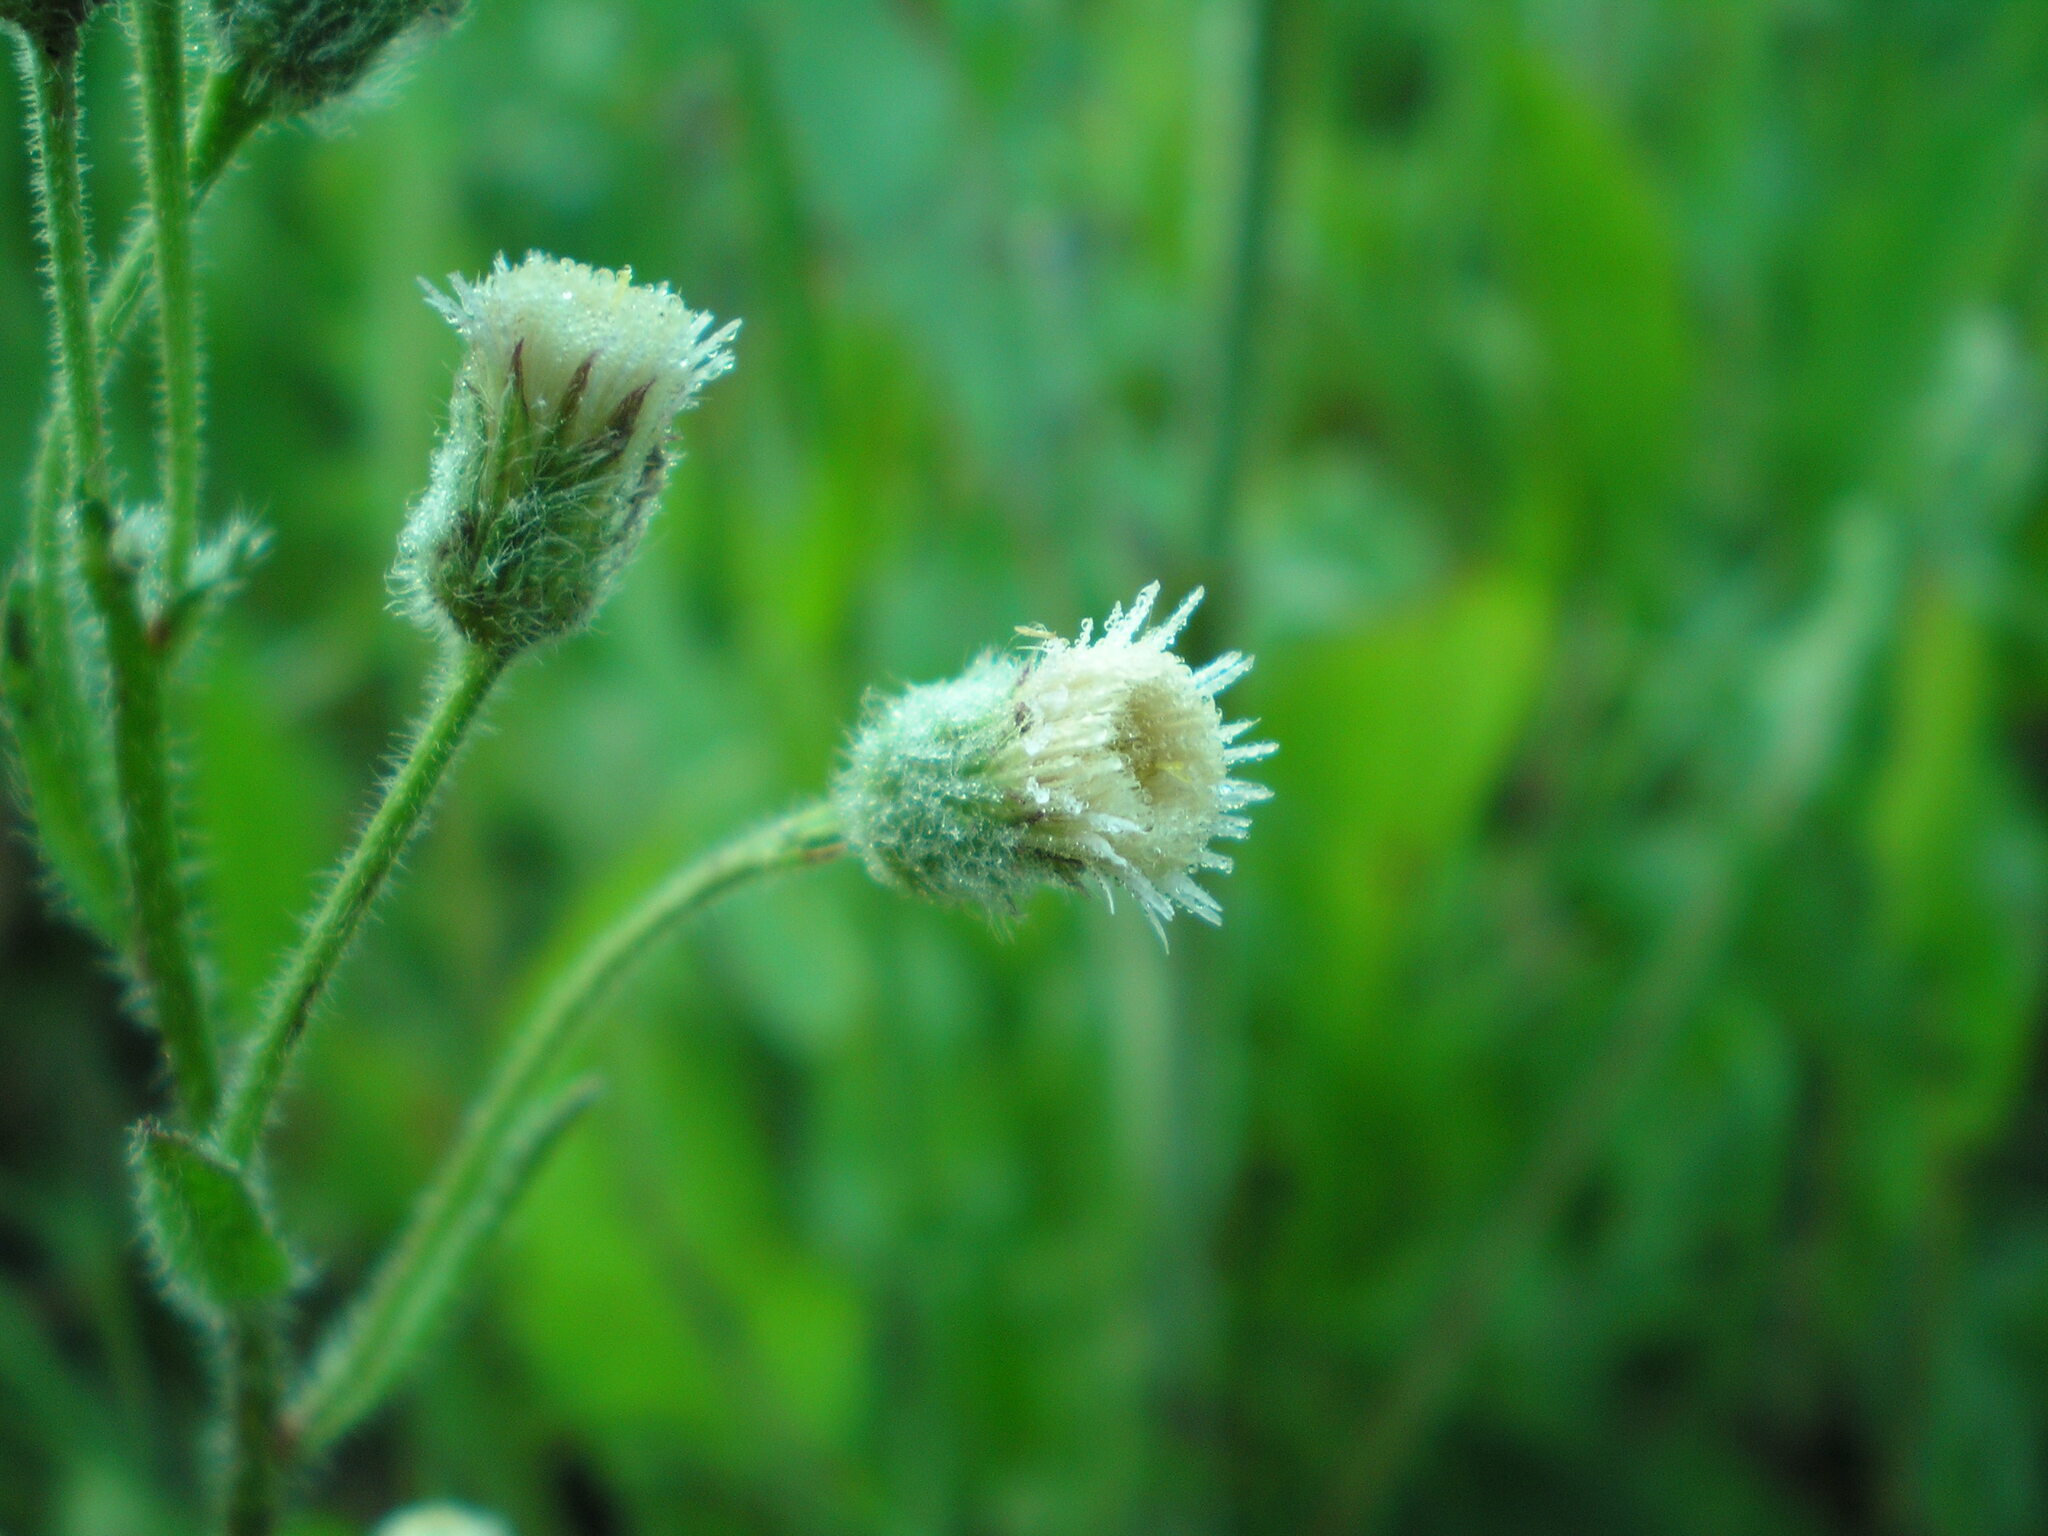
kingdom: Plantae
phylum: Tracheophyta
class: Magnoliopsida
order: Asterales
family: Asteraceae
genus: Erigeron
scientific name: Erigeron acris
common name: Blue fleabane
